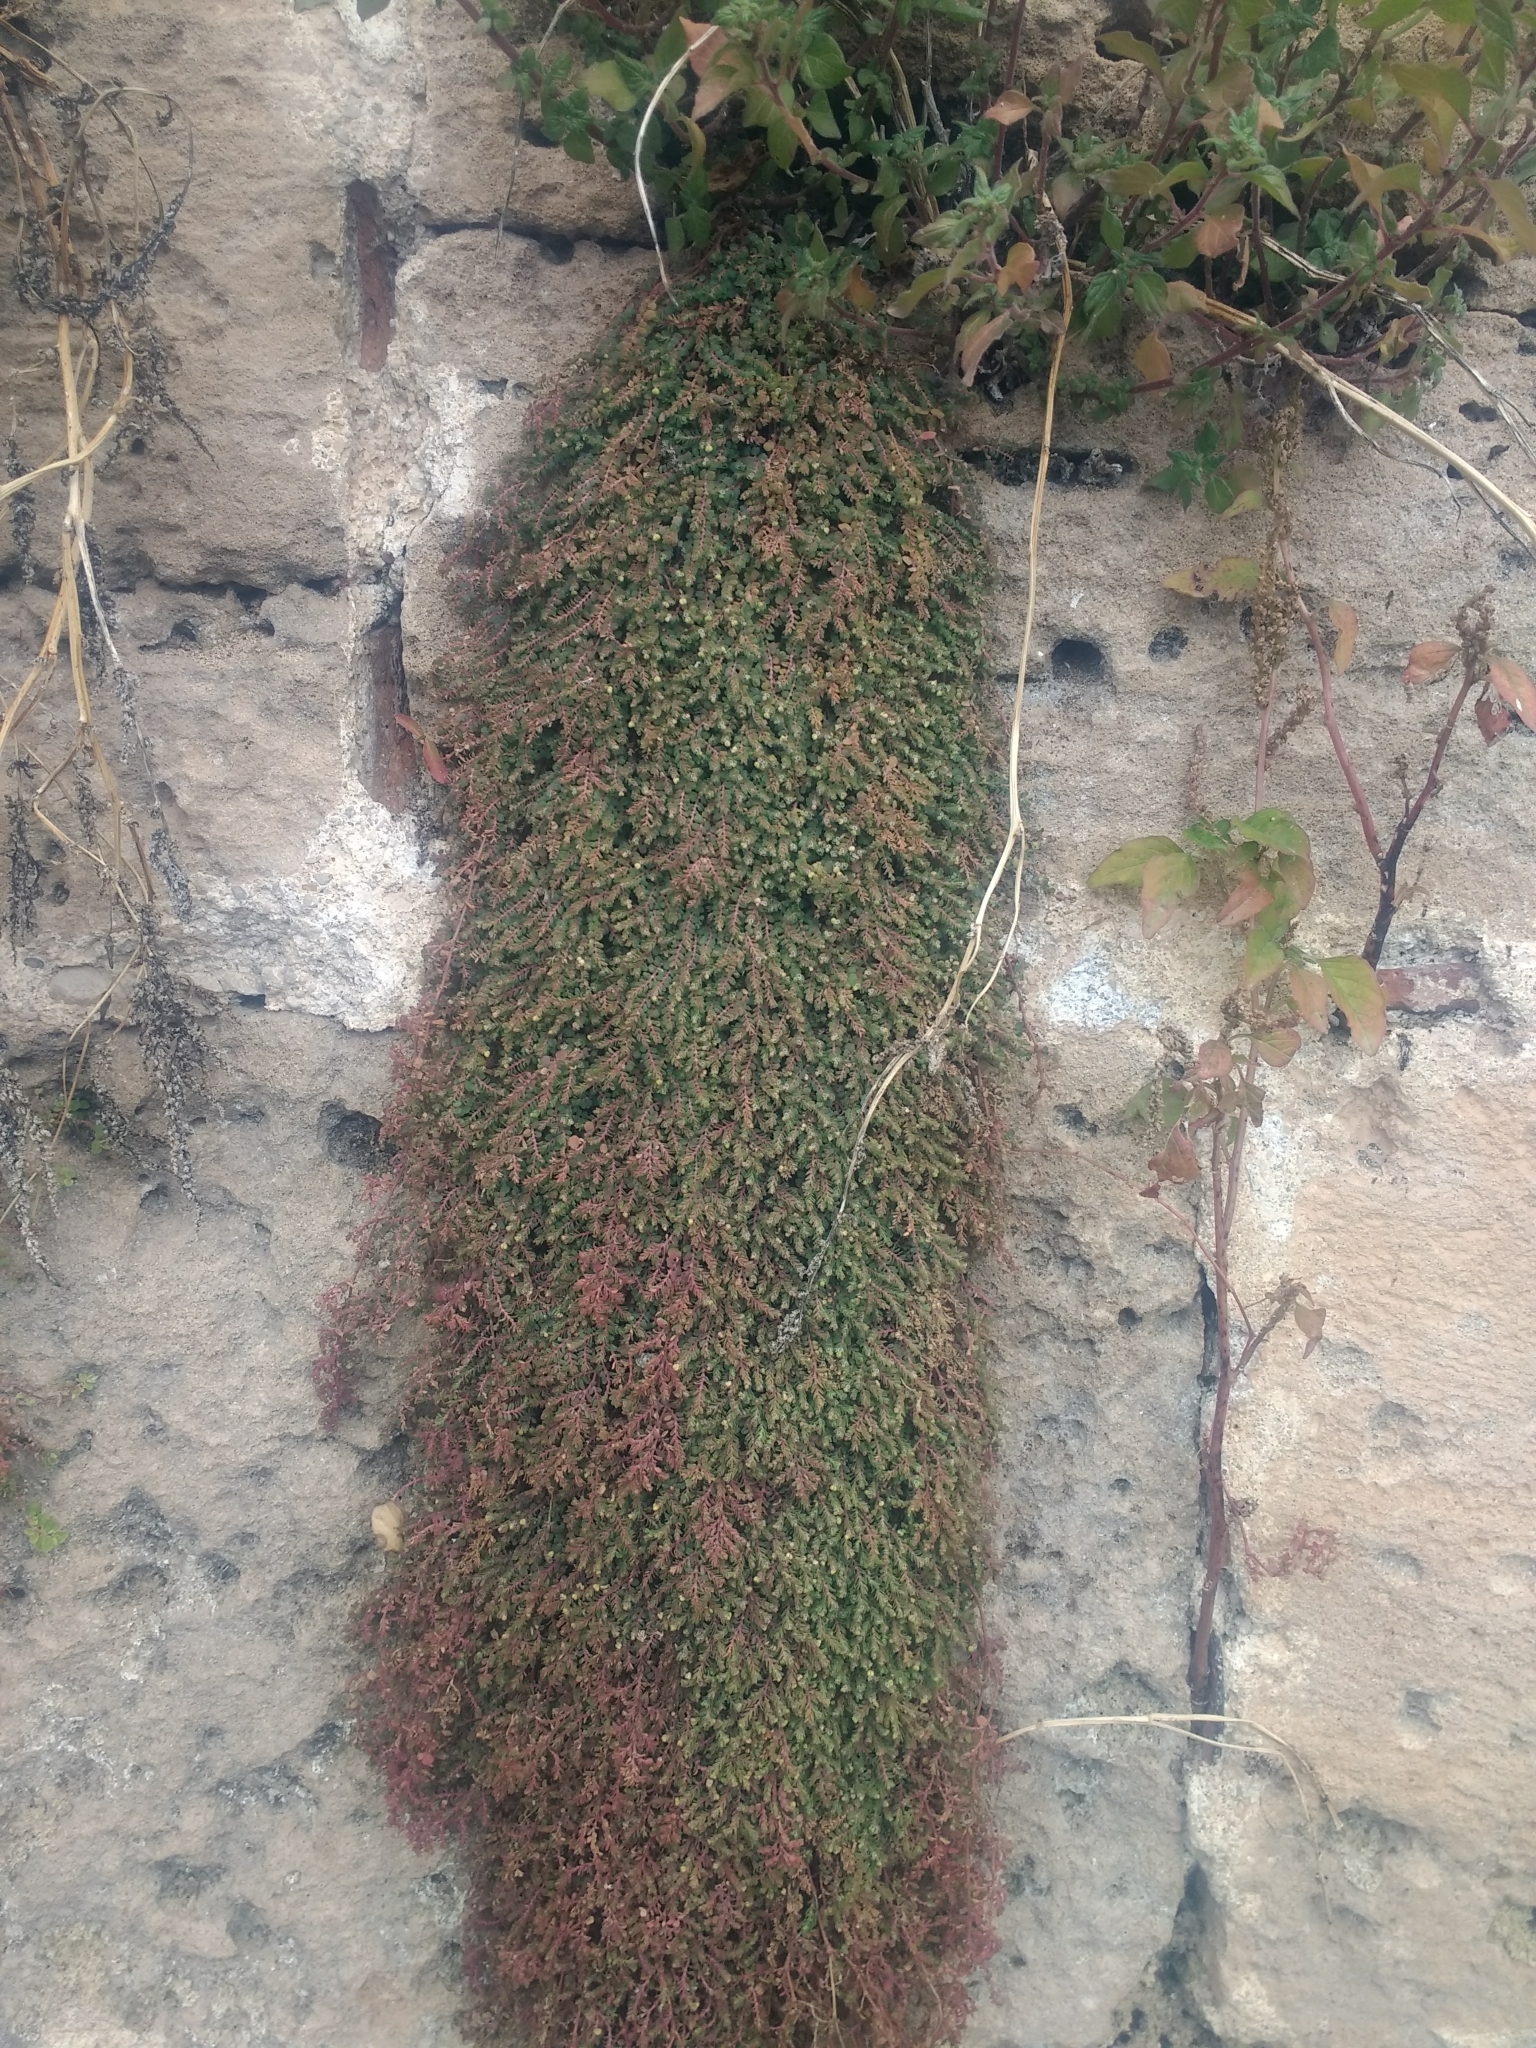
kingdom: Plantae
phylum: Tracheophyta
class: Magnoliopsida
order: Malpighiales
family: Euphorbiaceae
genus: Euphorbia
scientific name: Euphorbia serpens
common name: Matted sandmat
